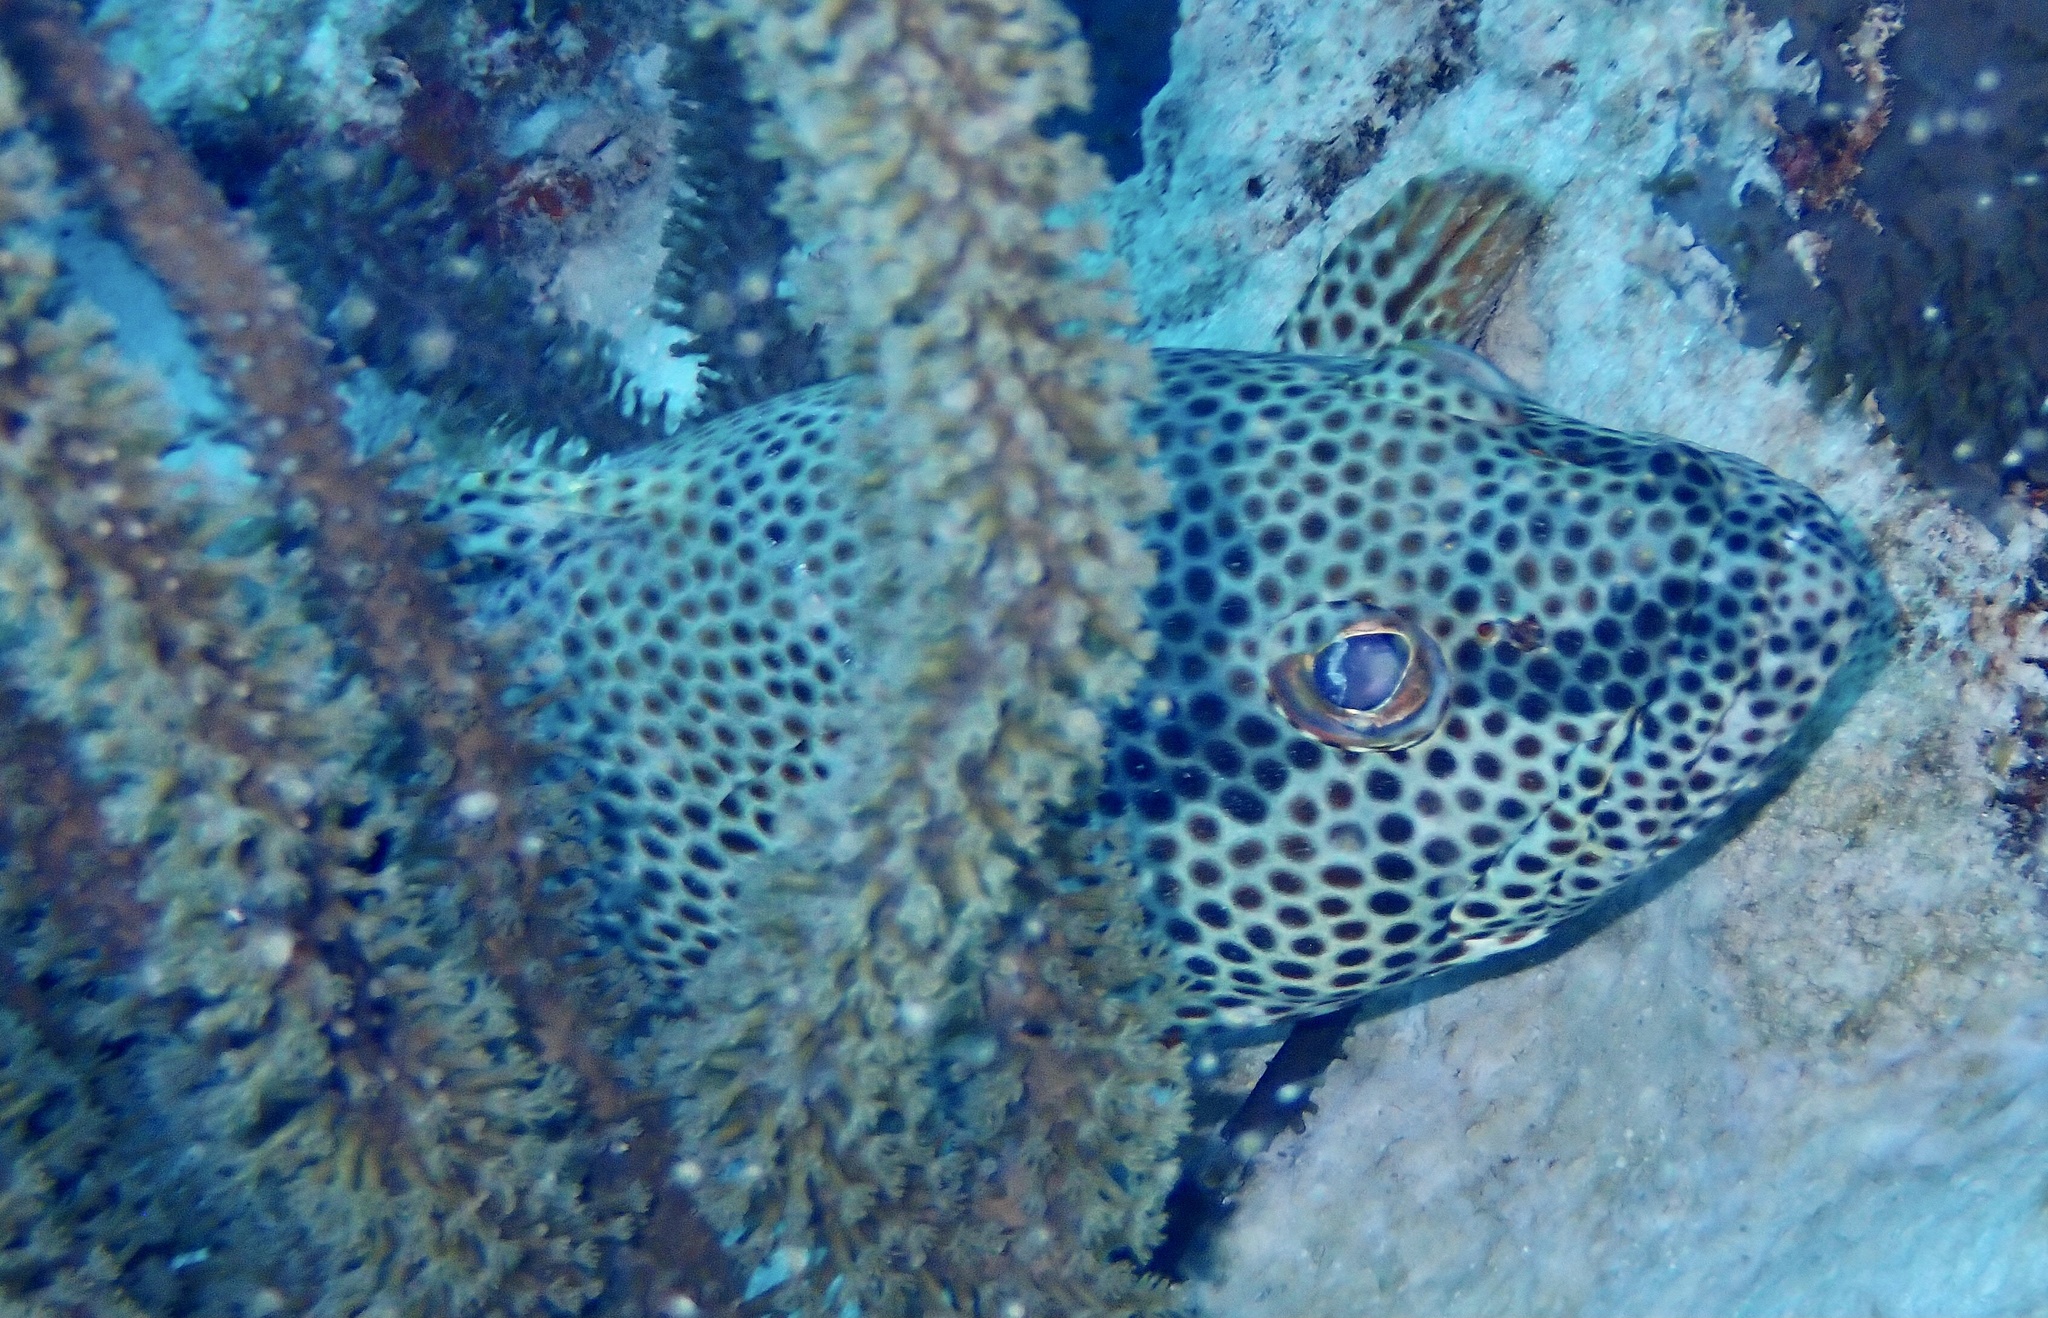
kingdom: Animalia
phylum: Chordata
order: Perciformes
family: Serranidae
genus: Epinephelus
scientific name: Epinephelus adscensionis
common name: Rock hind
